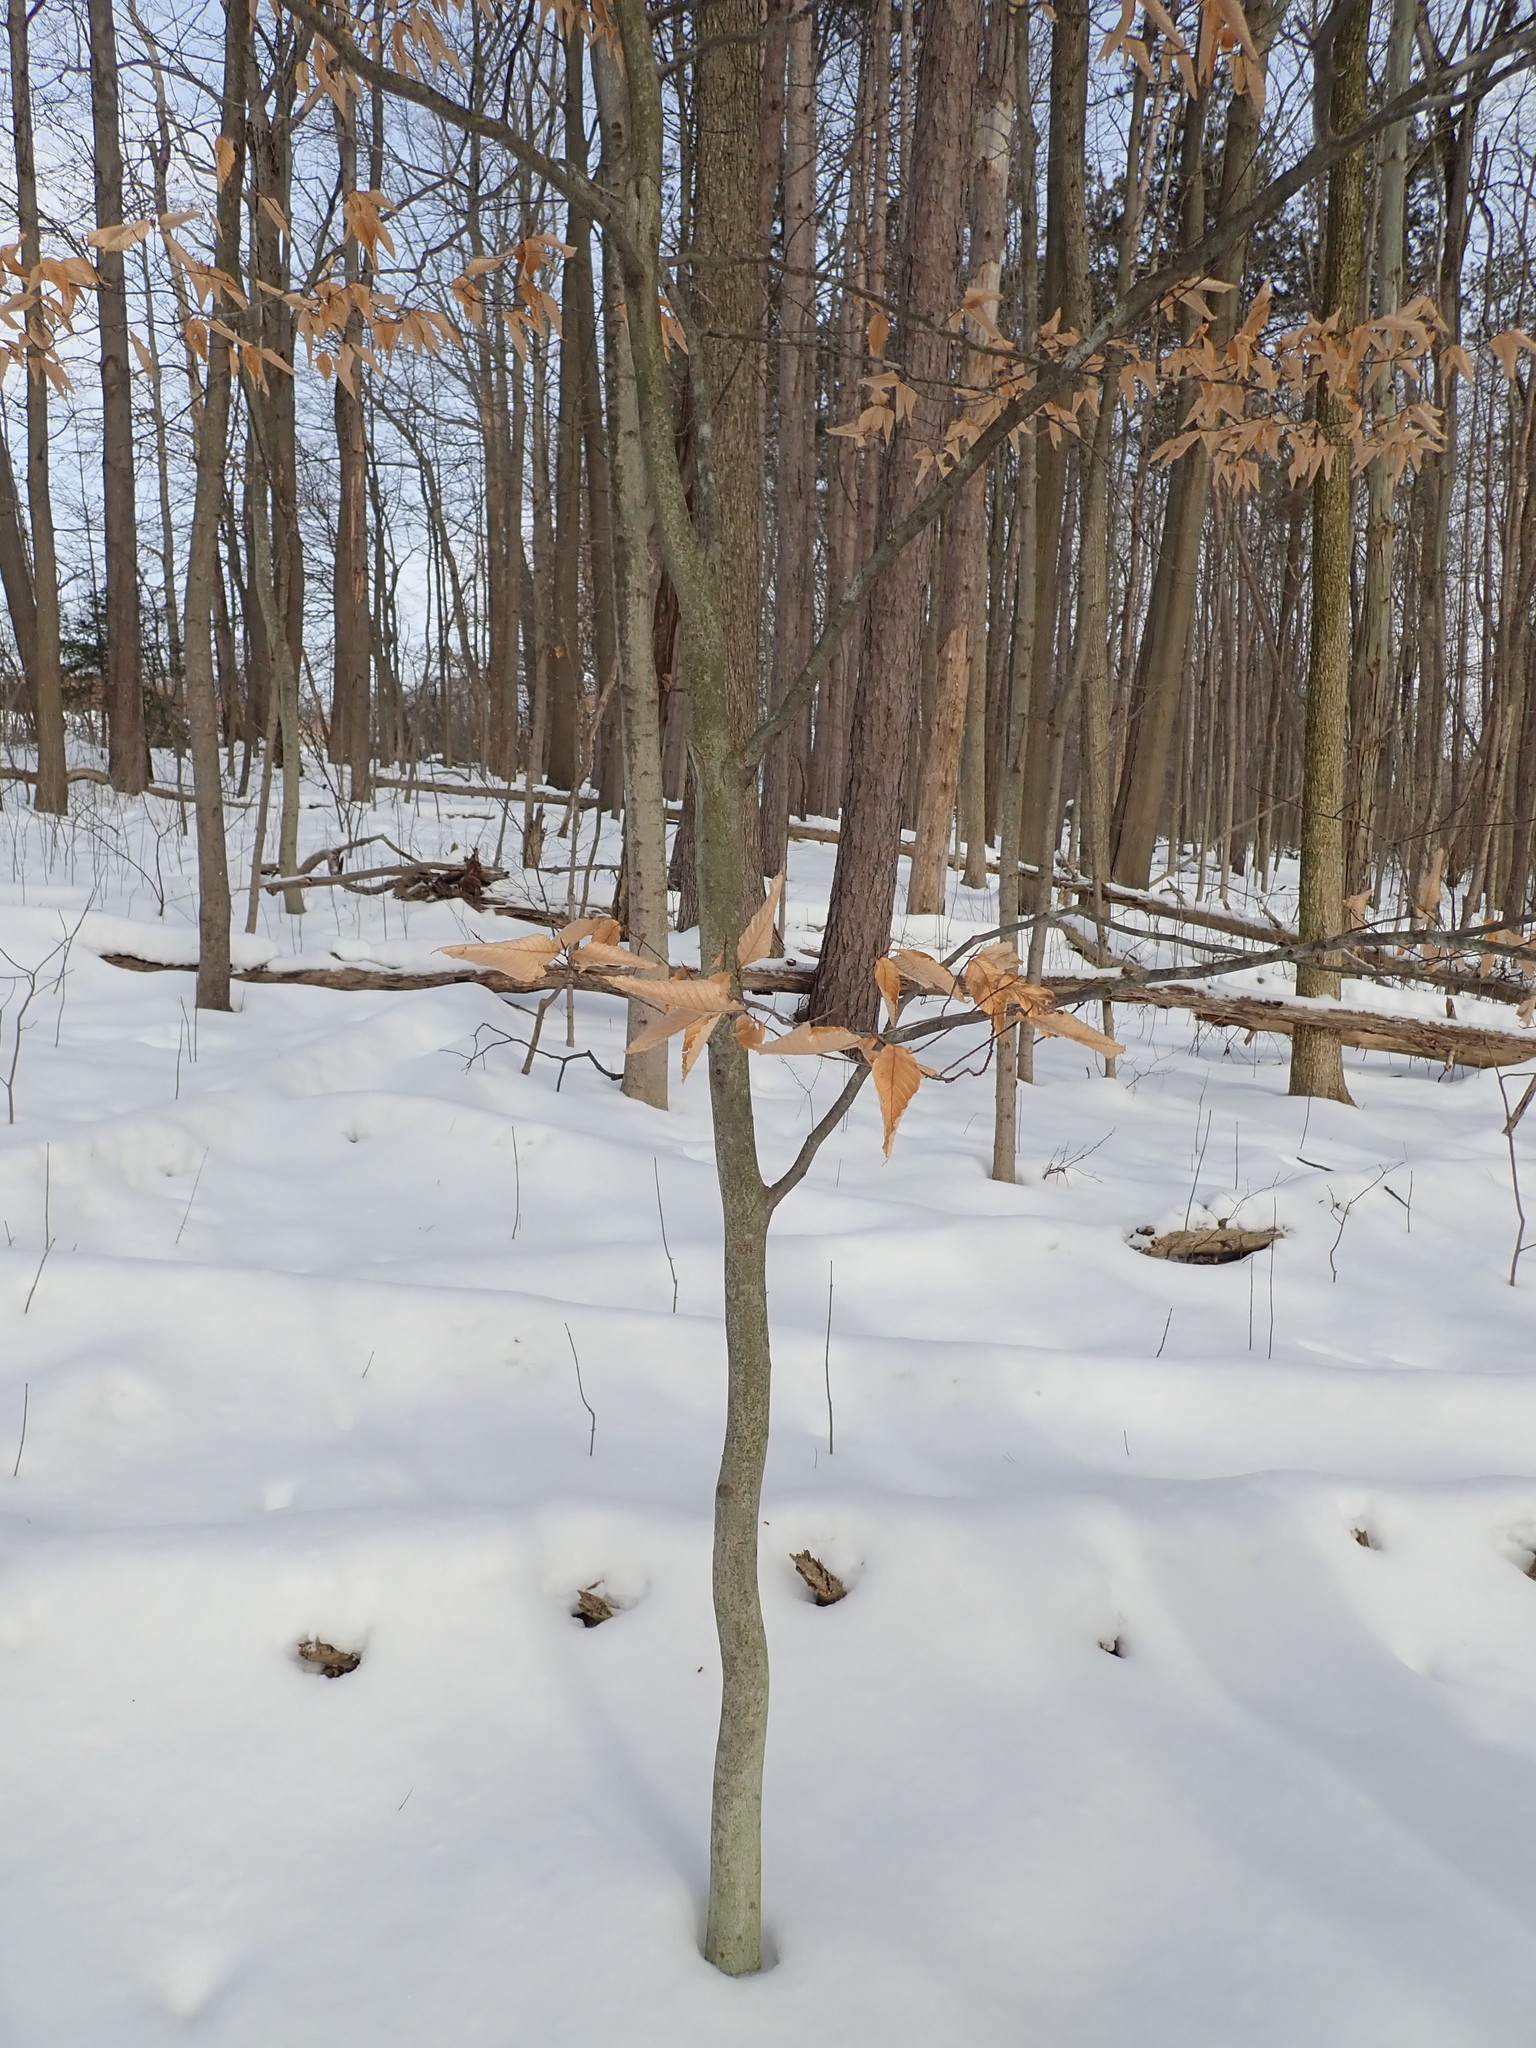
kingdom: Plantae
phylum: Tracheophyta
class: Magnoliopsida
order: Fagales
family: Fagaceae
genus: Fagus
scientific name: Fagus grandifolia
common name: American beech
